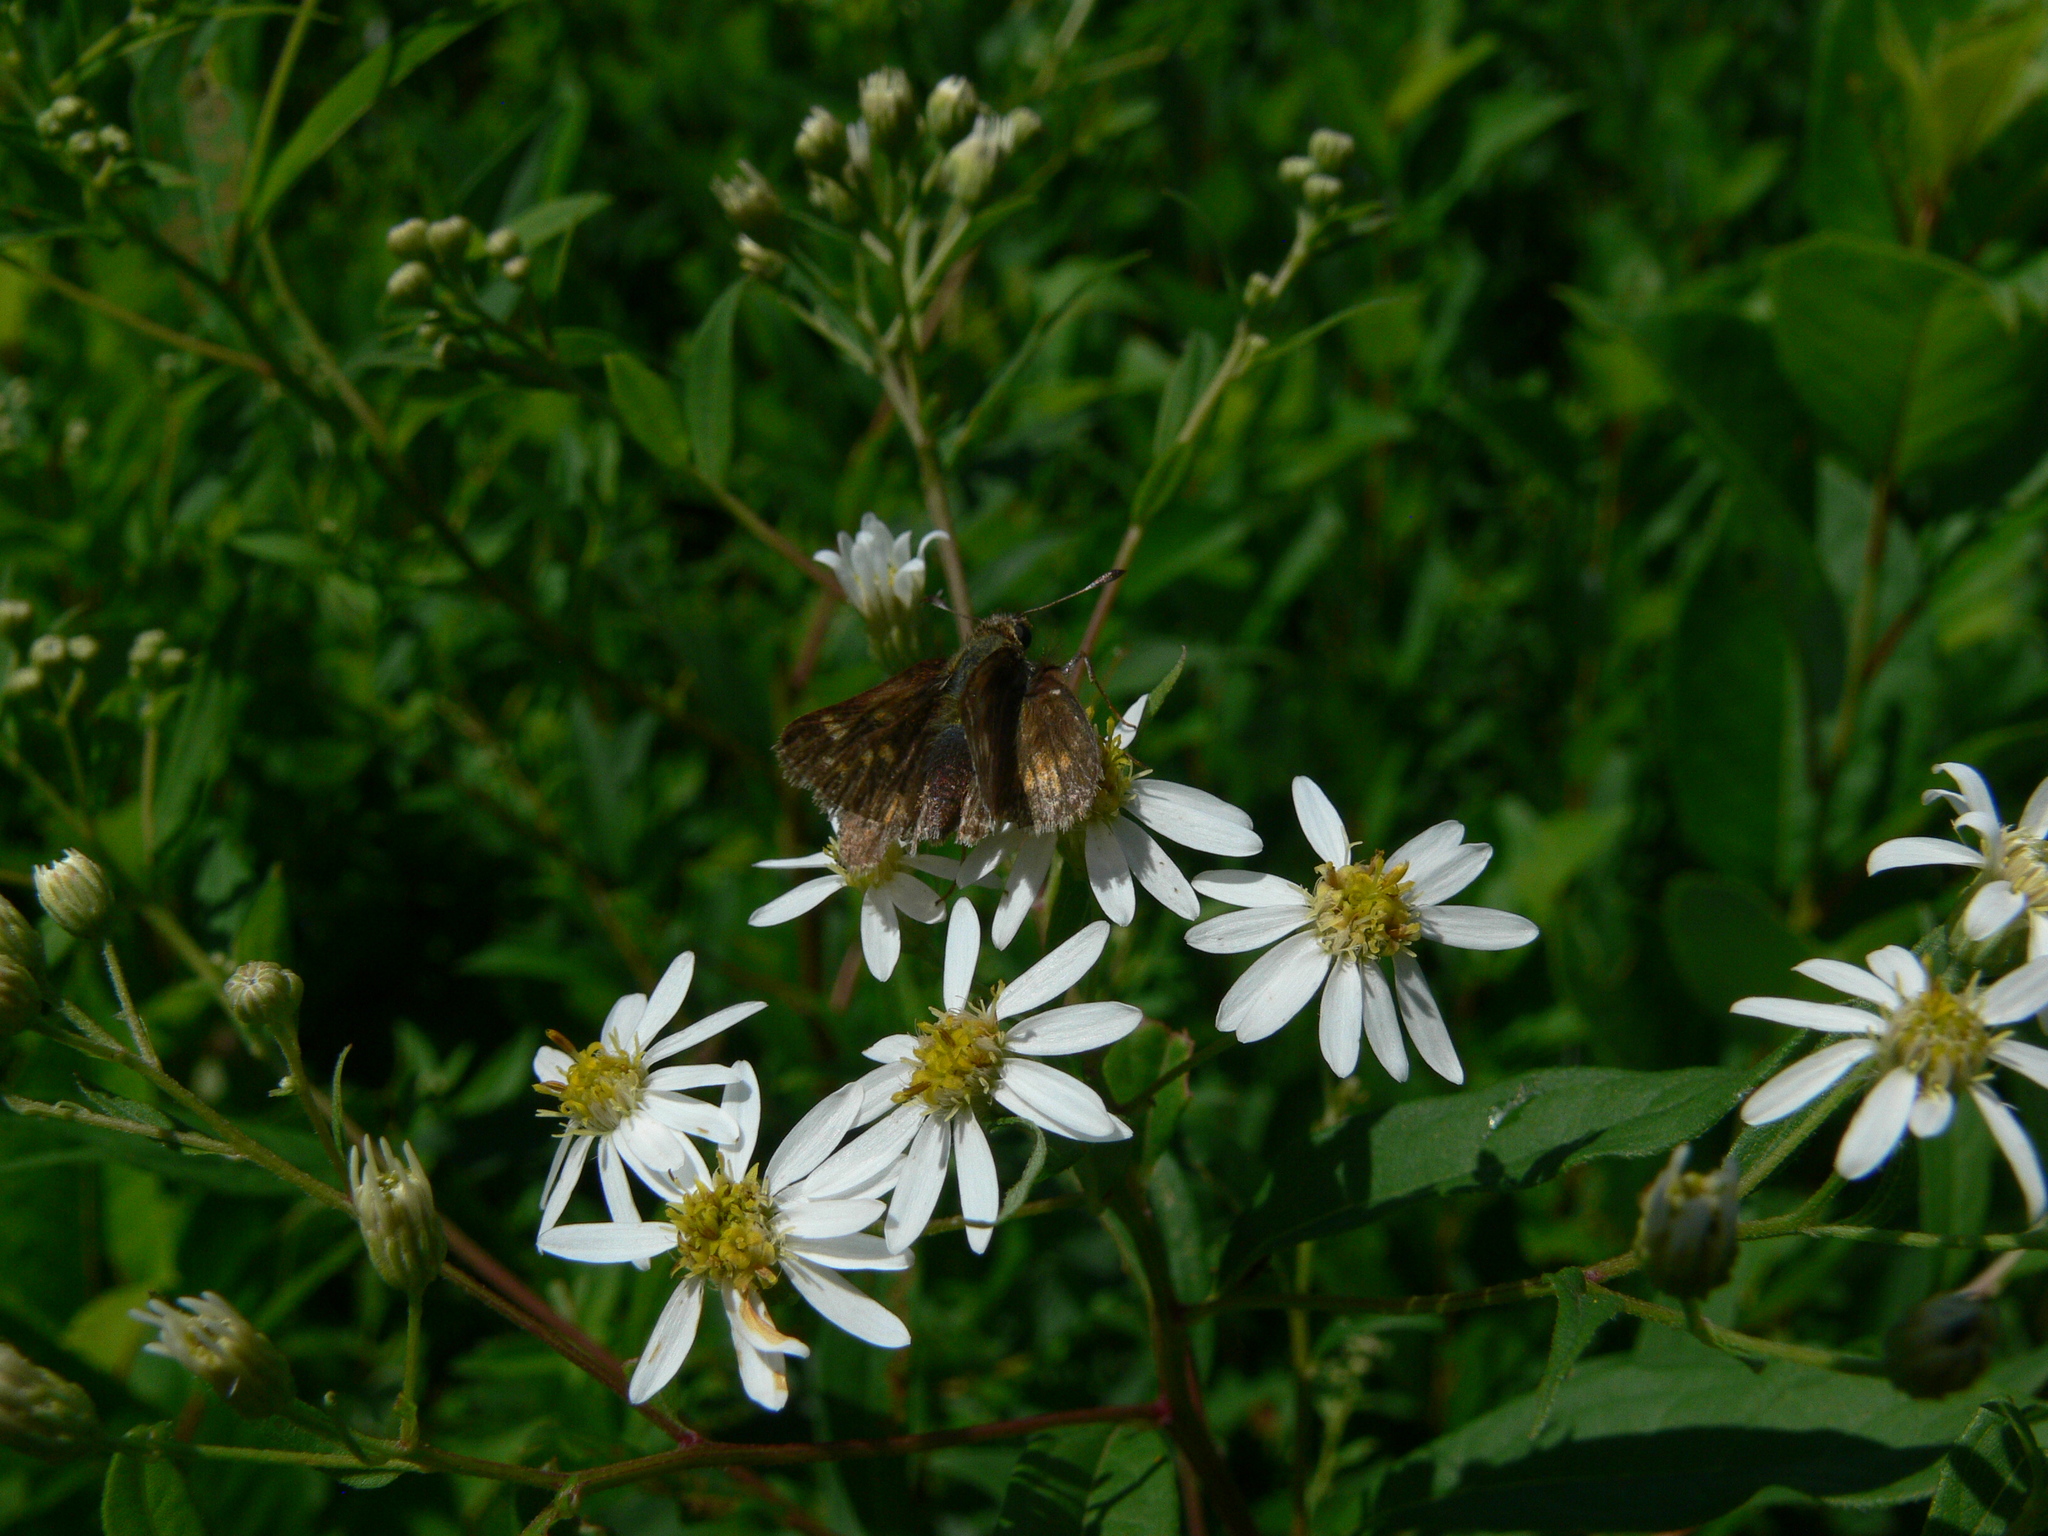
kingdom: Animalia
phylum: Arthropoda
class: Insecta
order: Lepidoptera
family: Hesperiidae
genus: Polites
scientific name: Polites coras
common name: Peck's skipper
